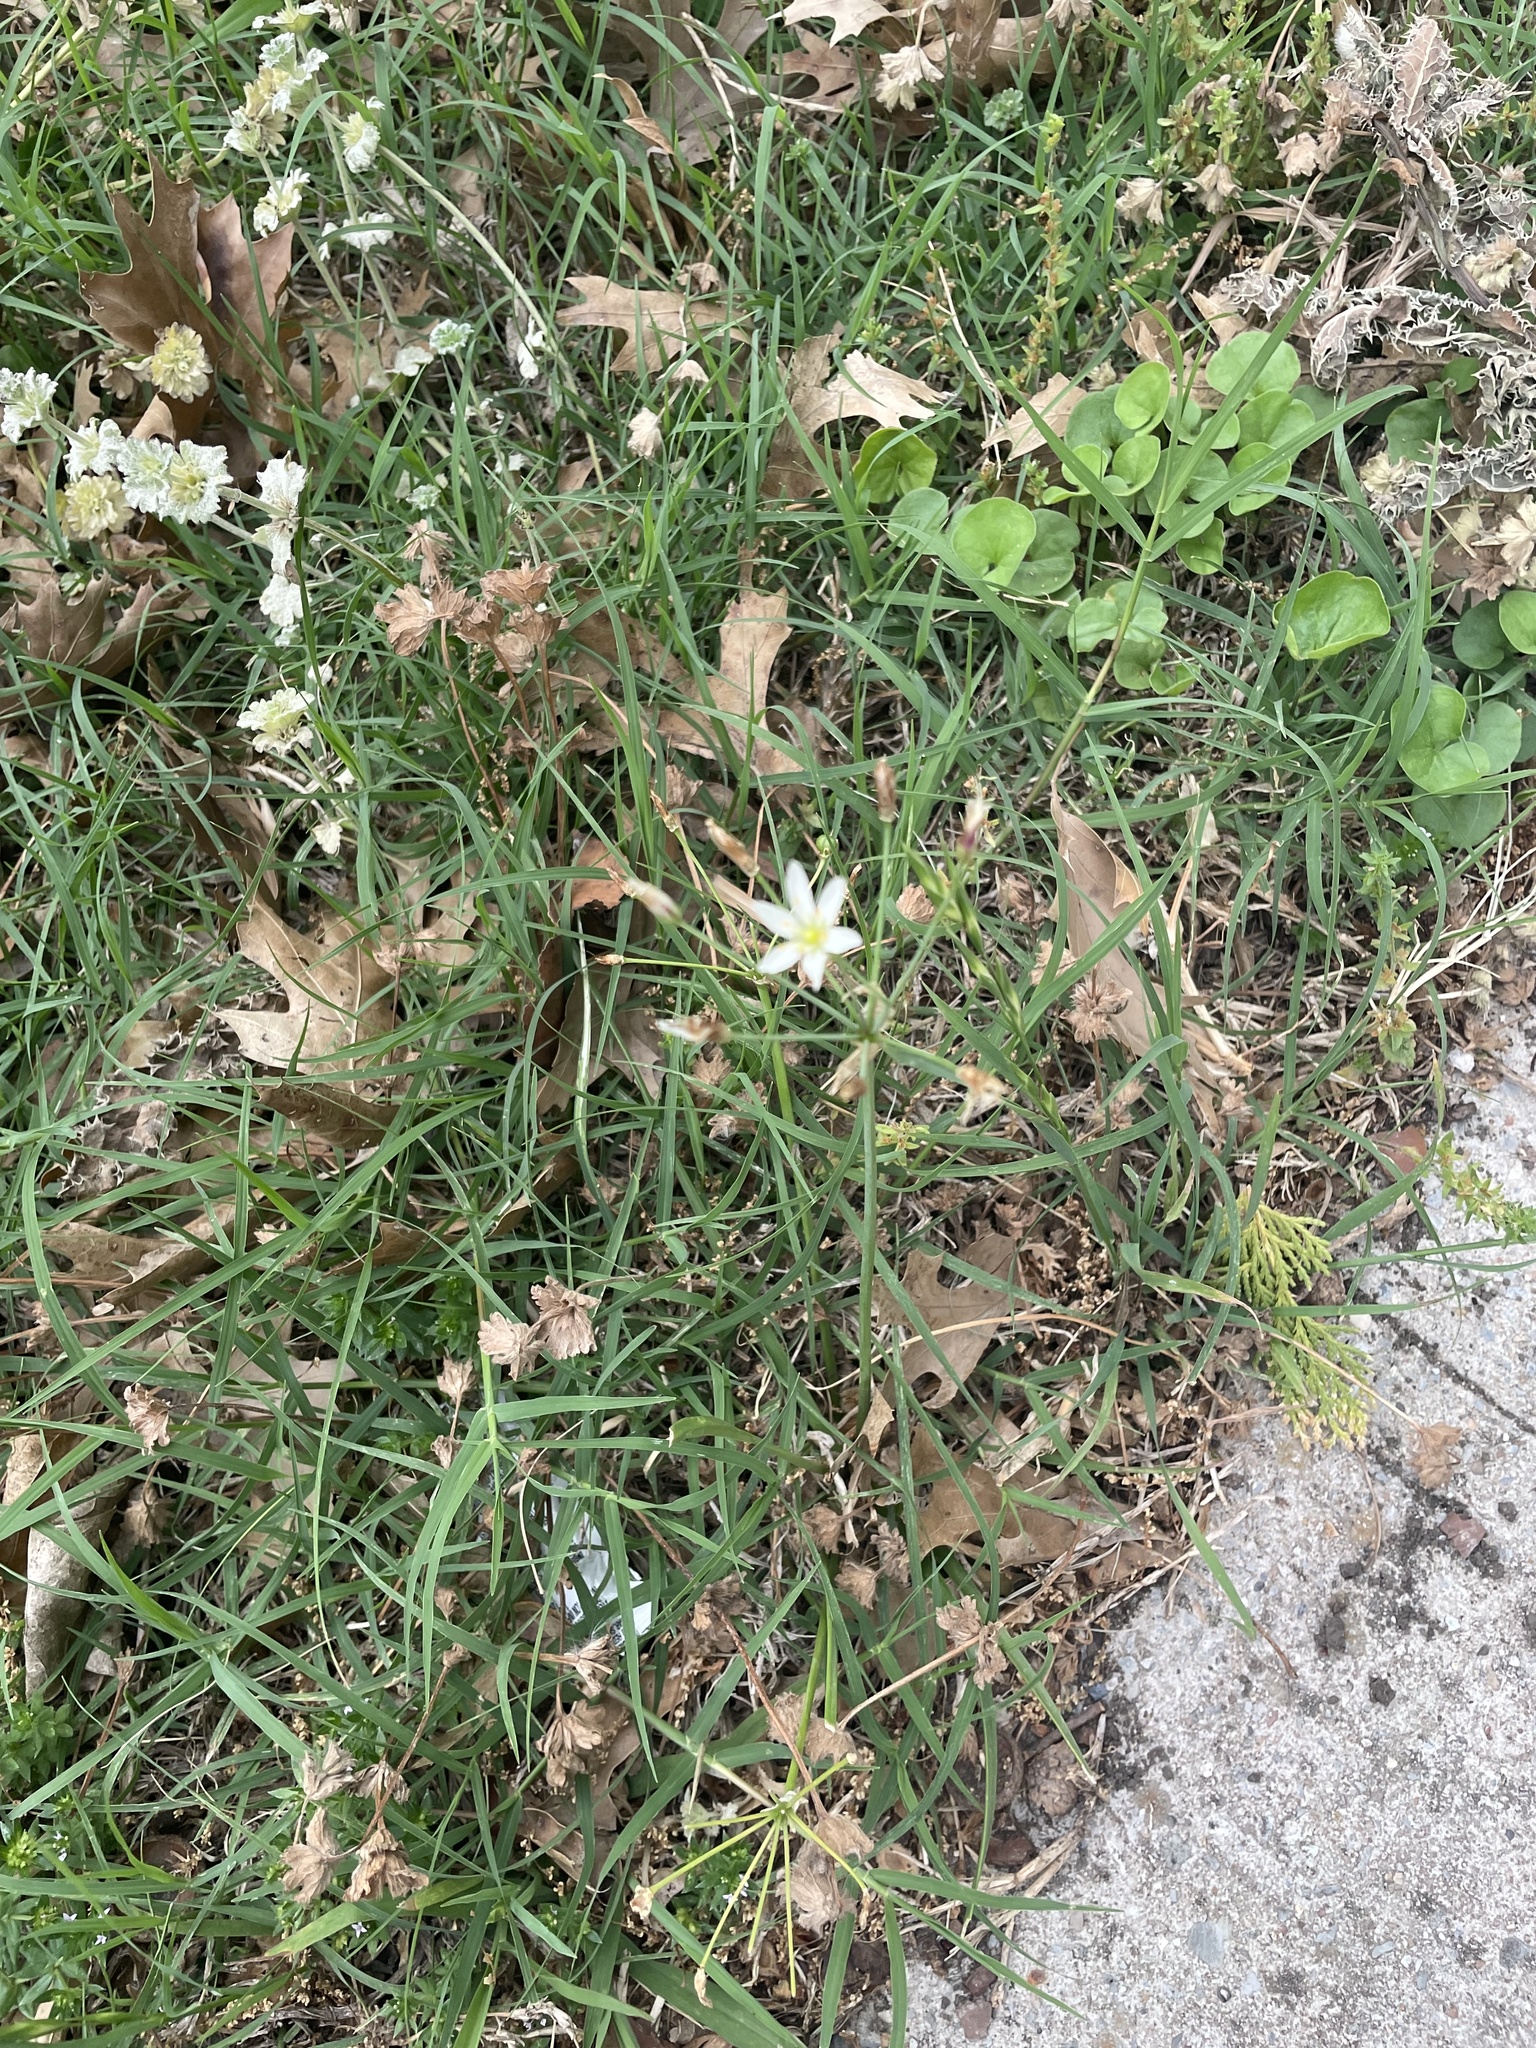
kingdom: Plantae
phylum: Tracheophyta
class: Liliopsida
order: Asparagales
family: Amaryllidaceae
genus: Nothoscordum
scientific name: Nothoscordum bivalve
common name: Crow-poison
